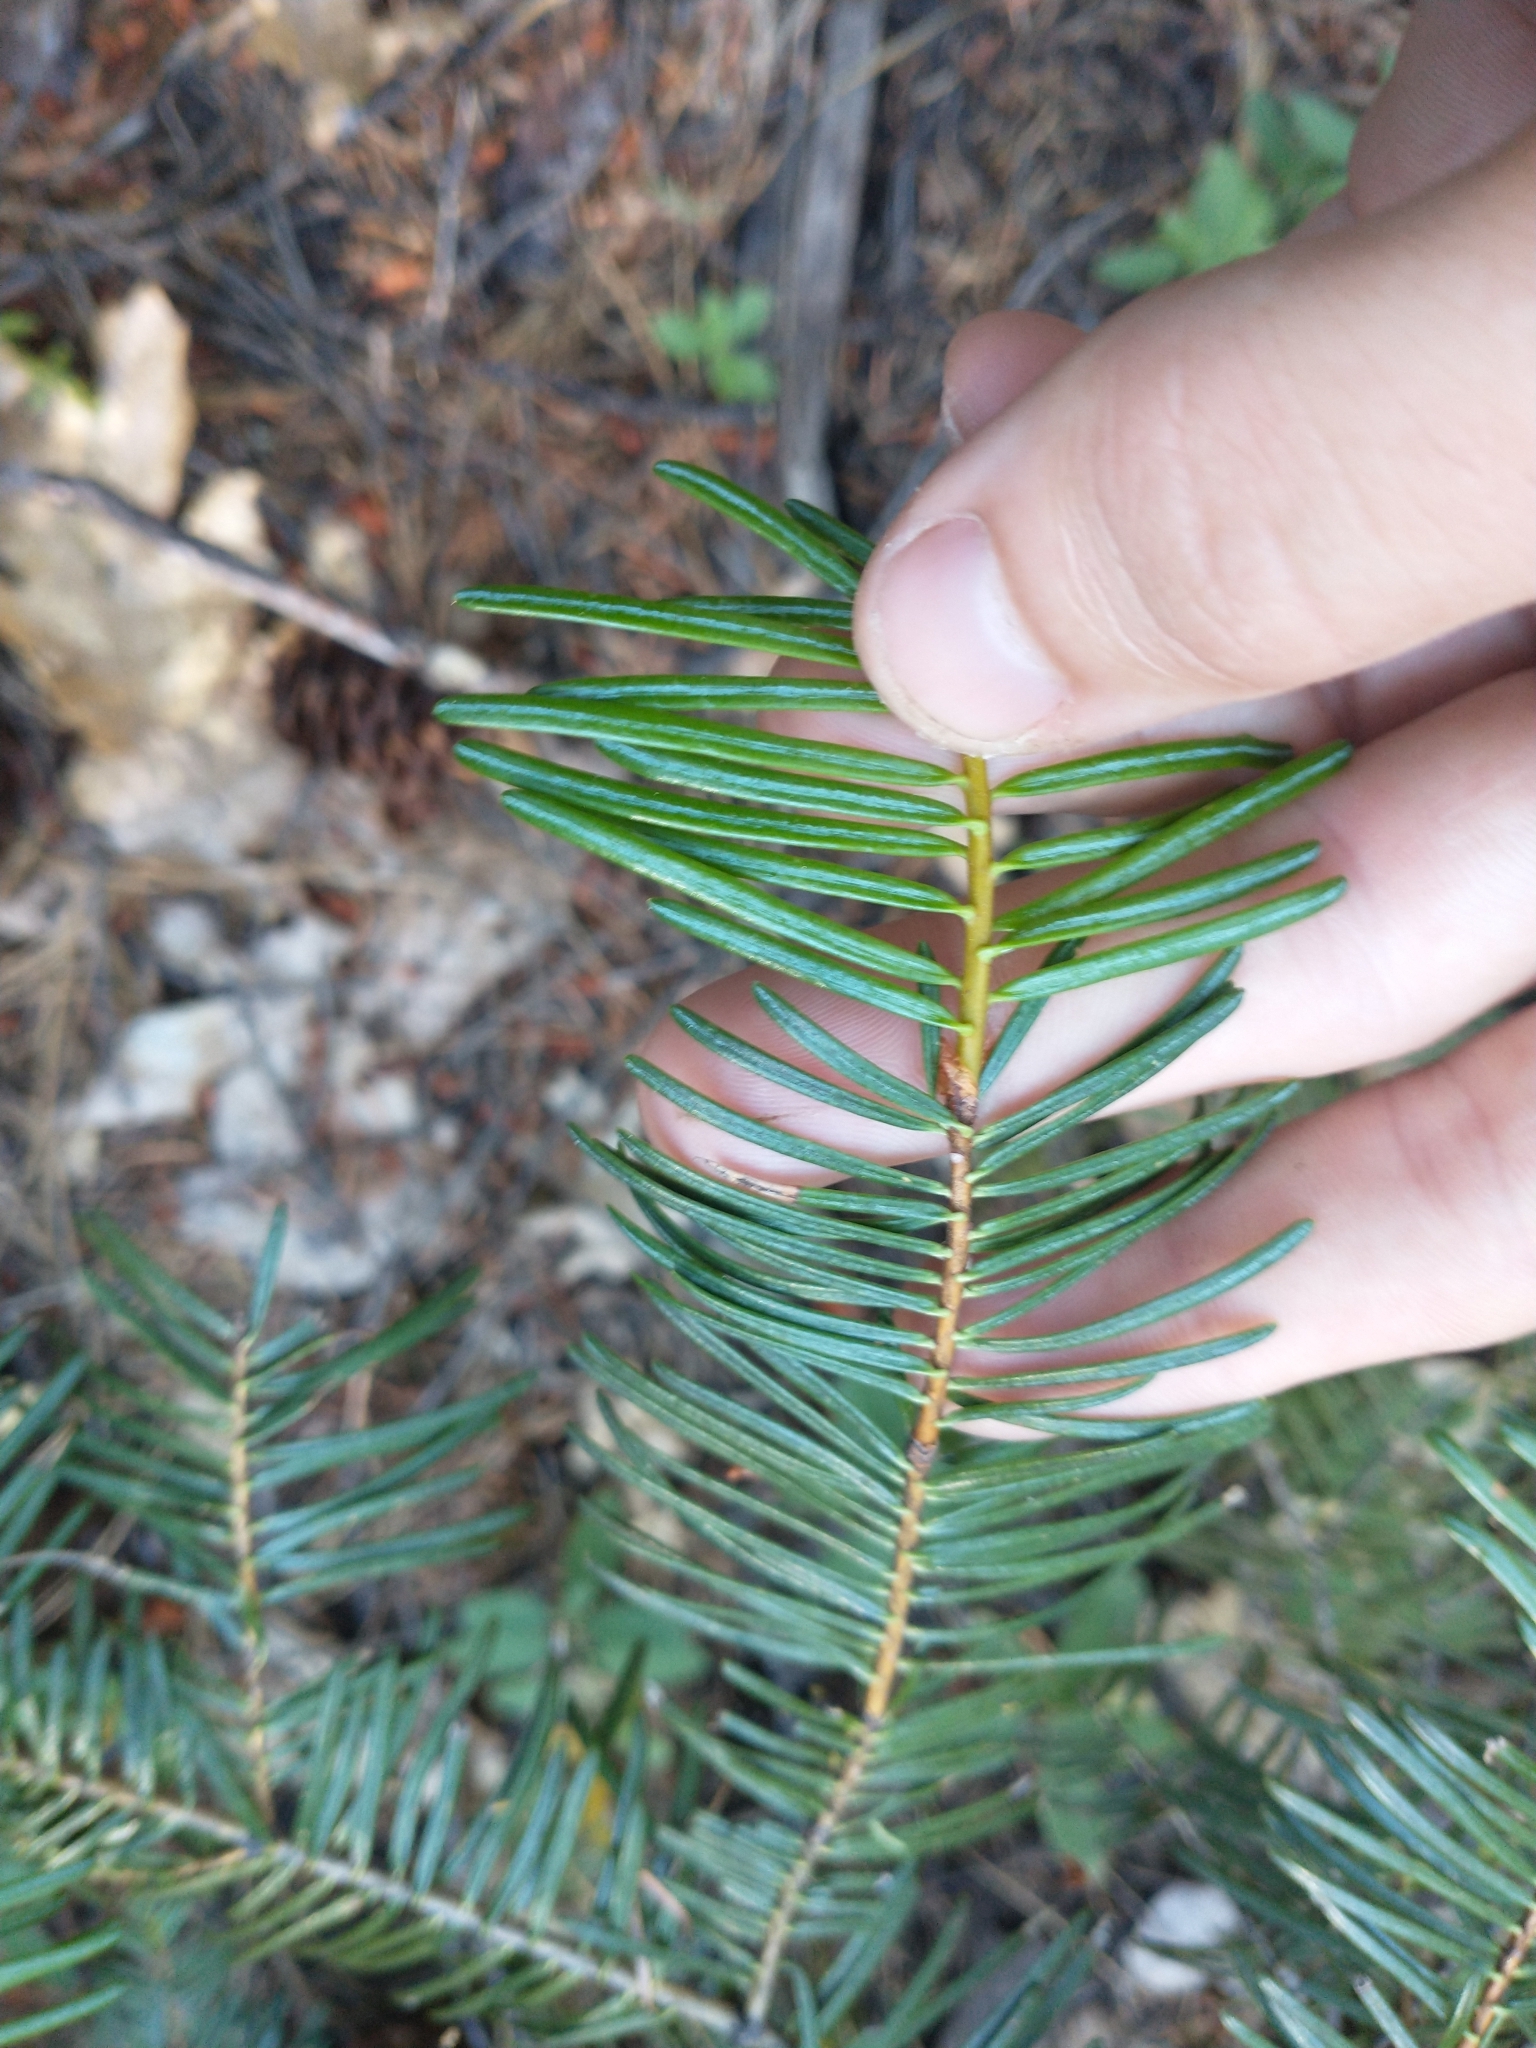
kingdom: Plantae
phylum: Tracheophyta
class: Pinopsida
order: Pinales
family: Pinaceae
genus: Abies
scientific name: Abies concolor
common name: Colorado fir
